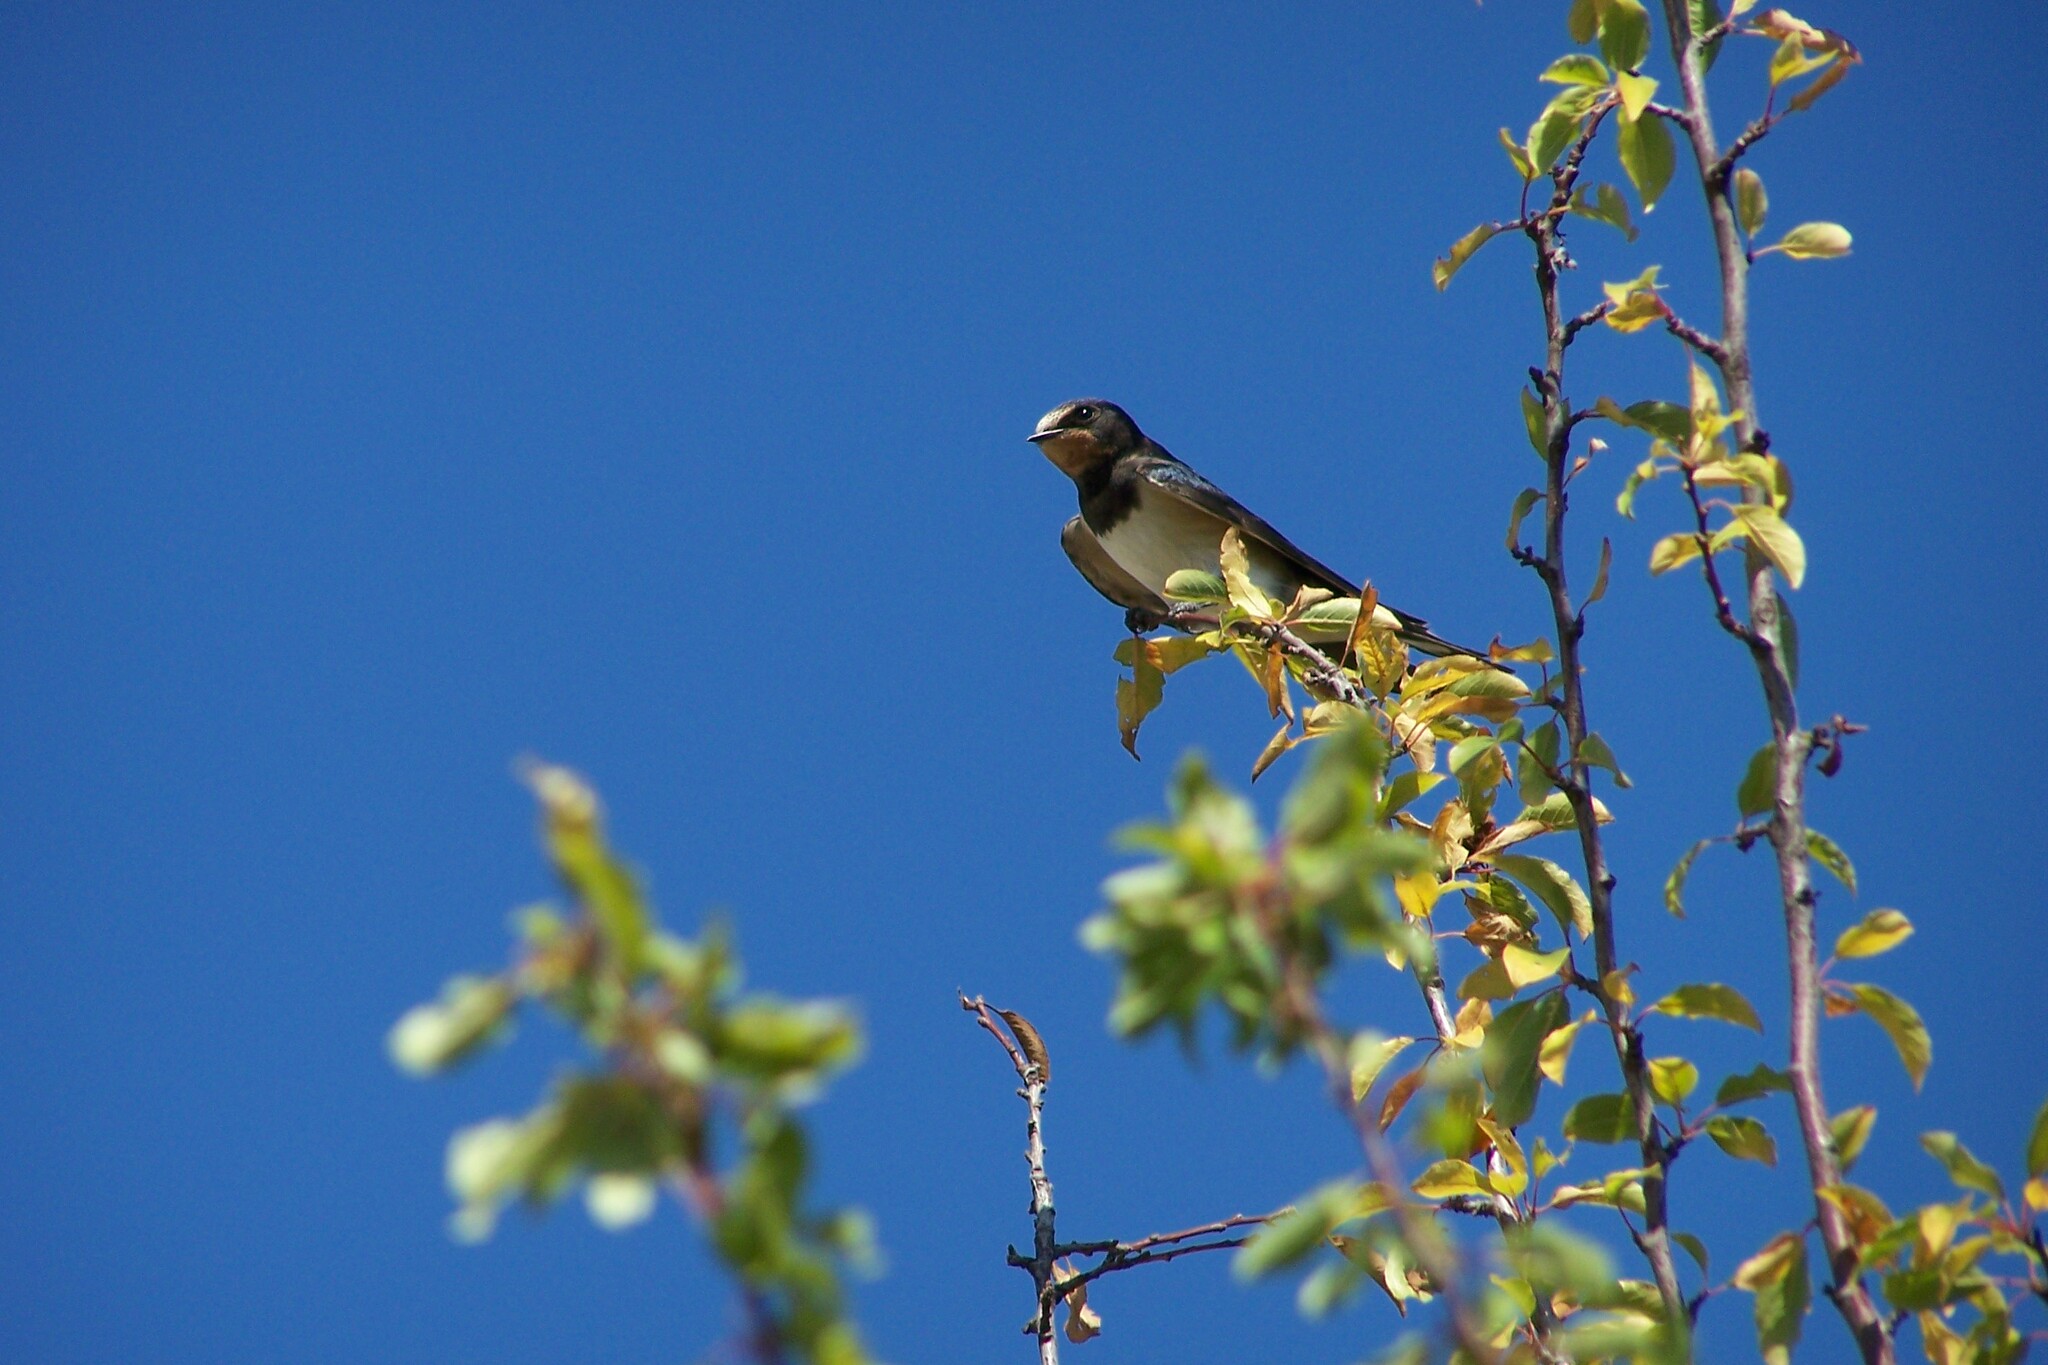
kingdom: Animalia
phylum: Chordata
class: Aves
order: Passeriformes
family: Hirundinidae
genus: Hirundo
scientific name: Hirundo rustica
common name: Barn swallow
